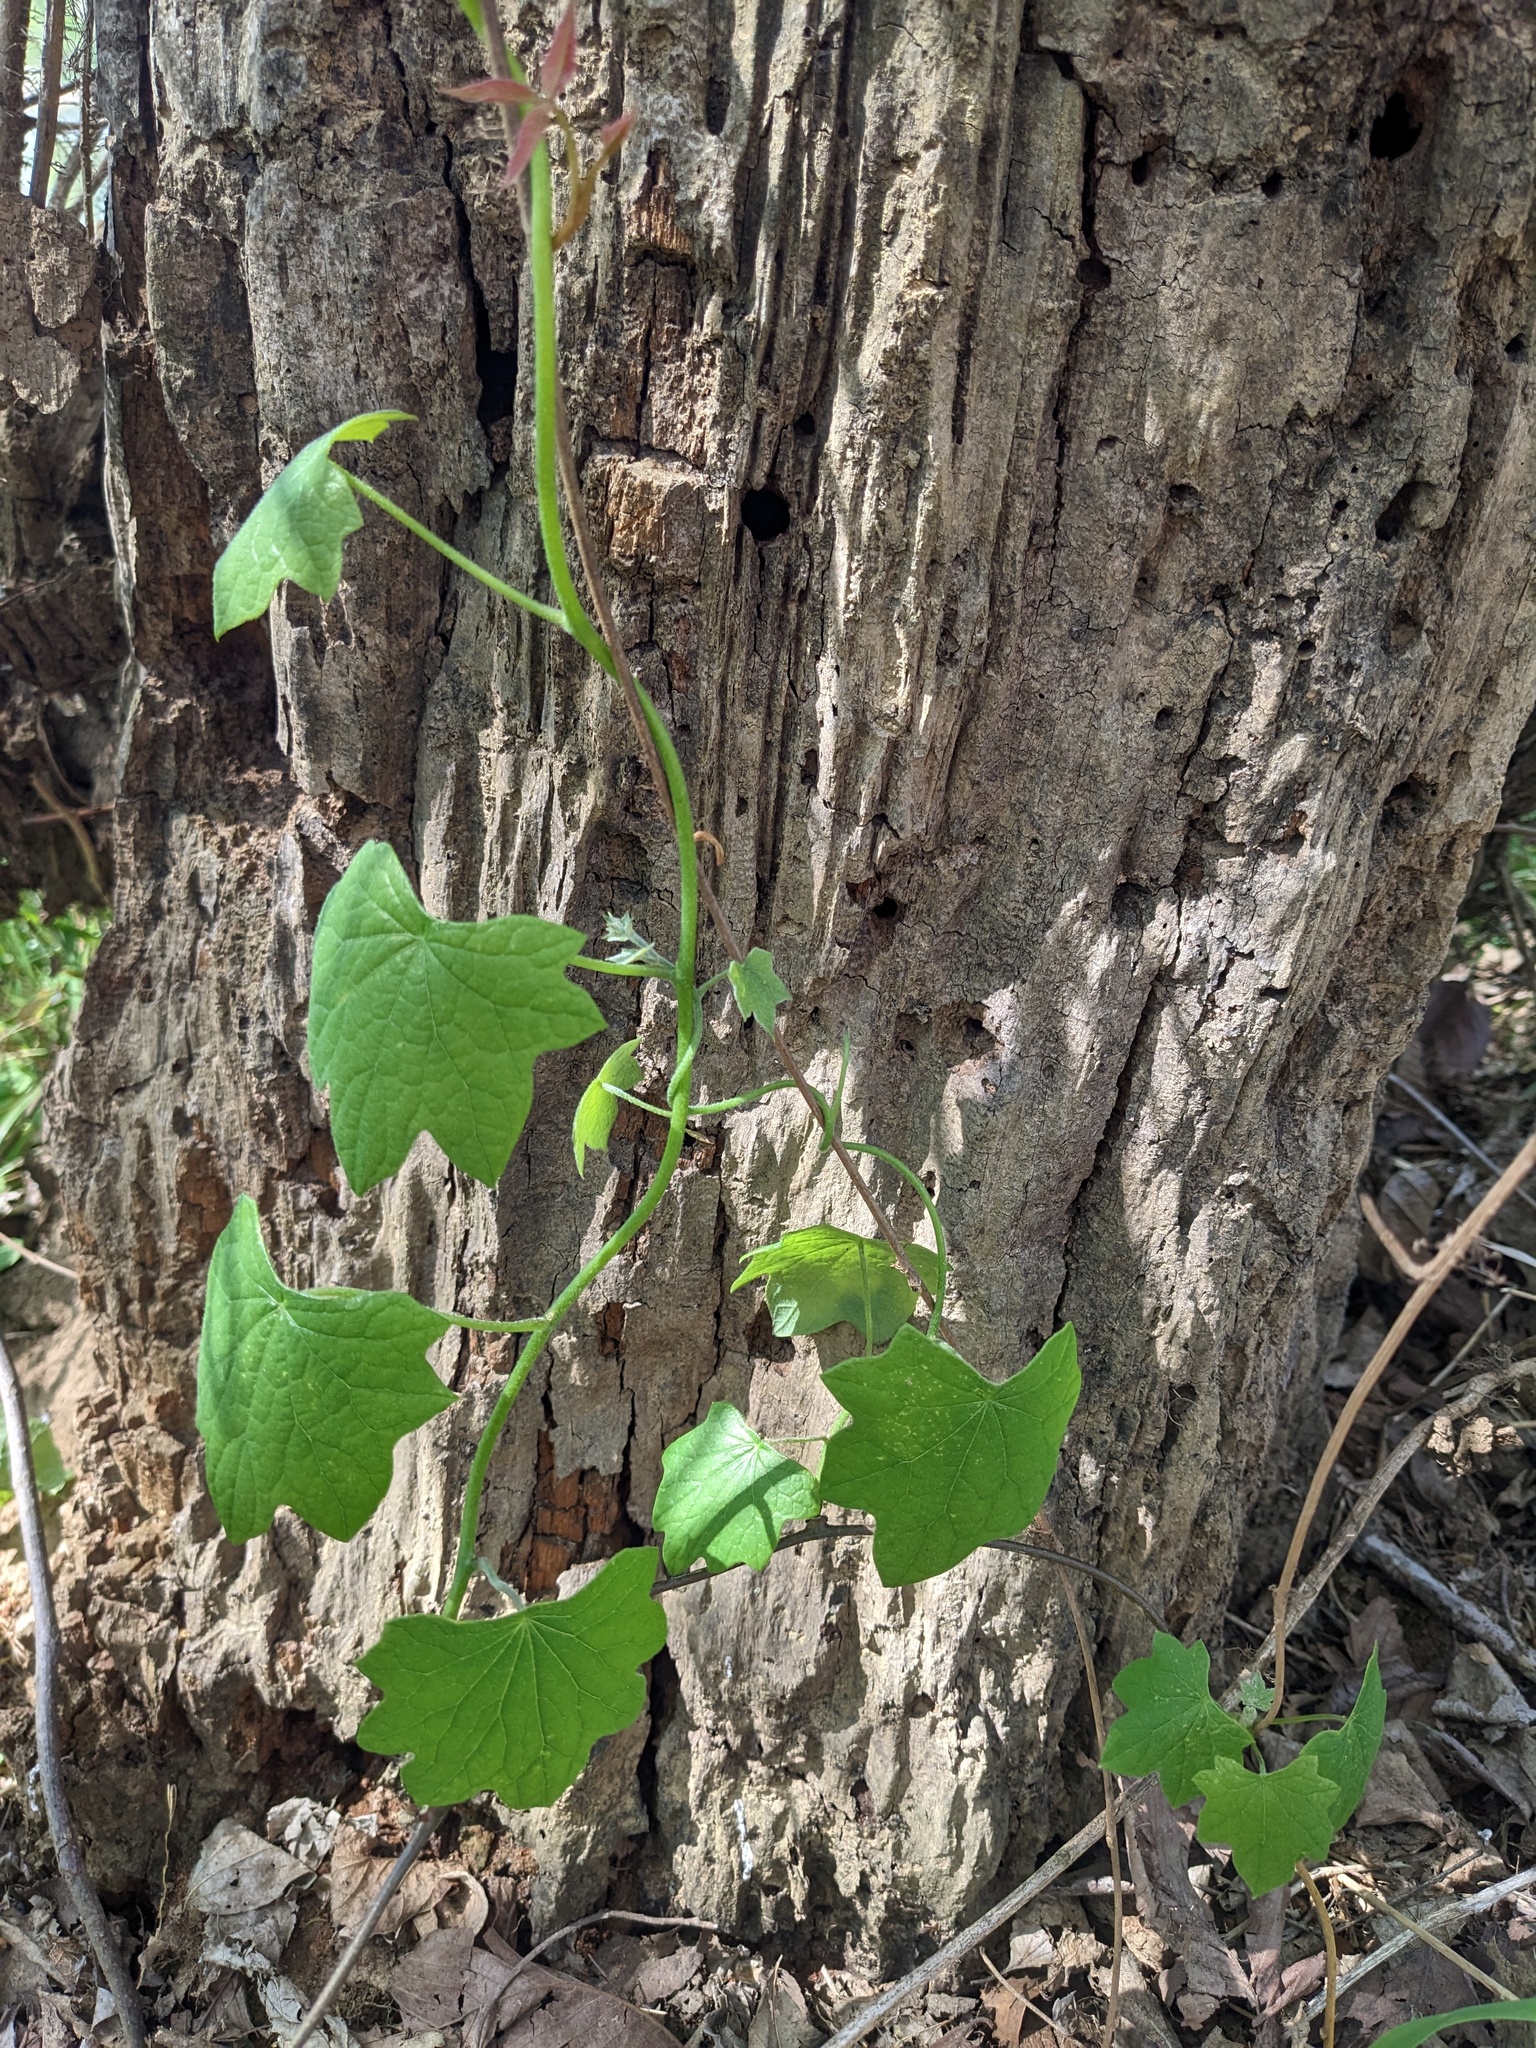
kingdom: Plantae
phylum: Tracheophyta
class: Magnoliopsida
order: Ranunculales
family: Menispermaceae
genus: Menispermum
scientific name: Menispermum canadense
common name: Moonseed
